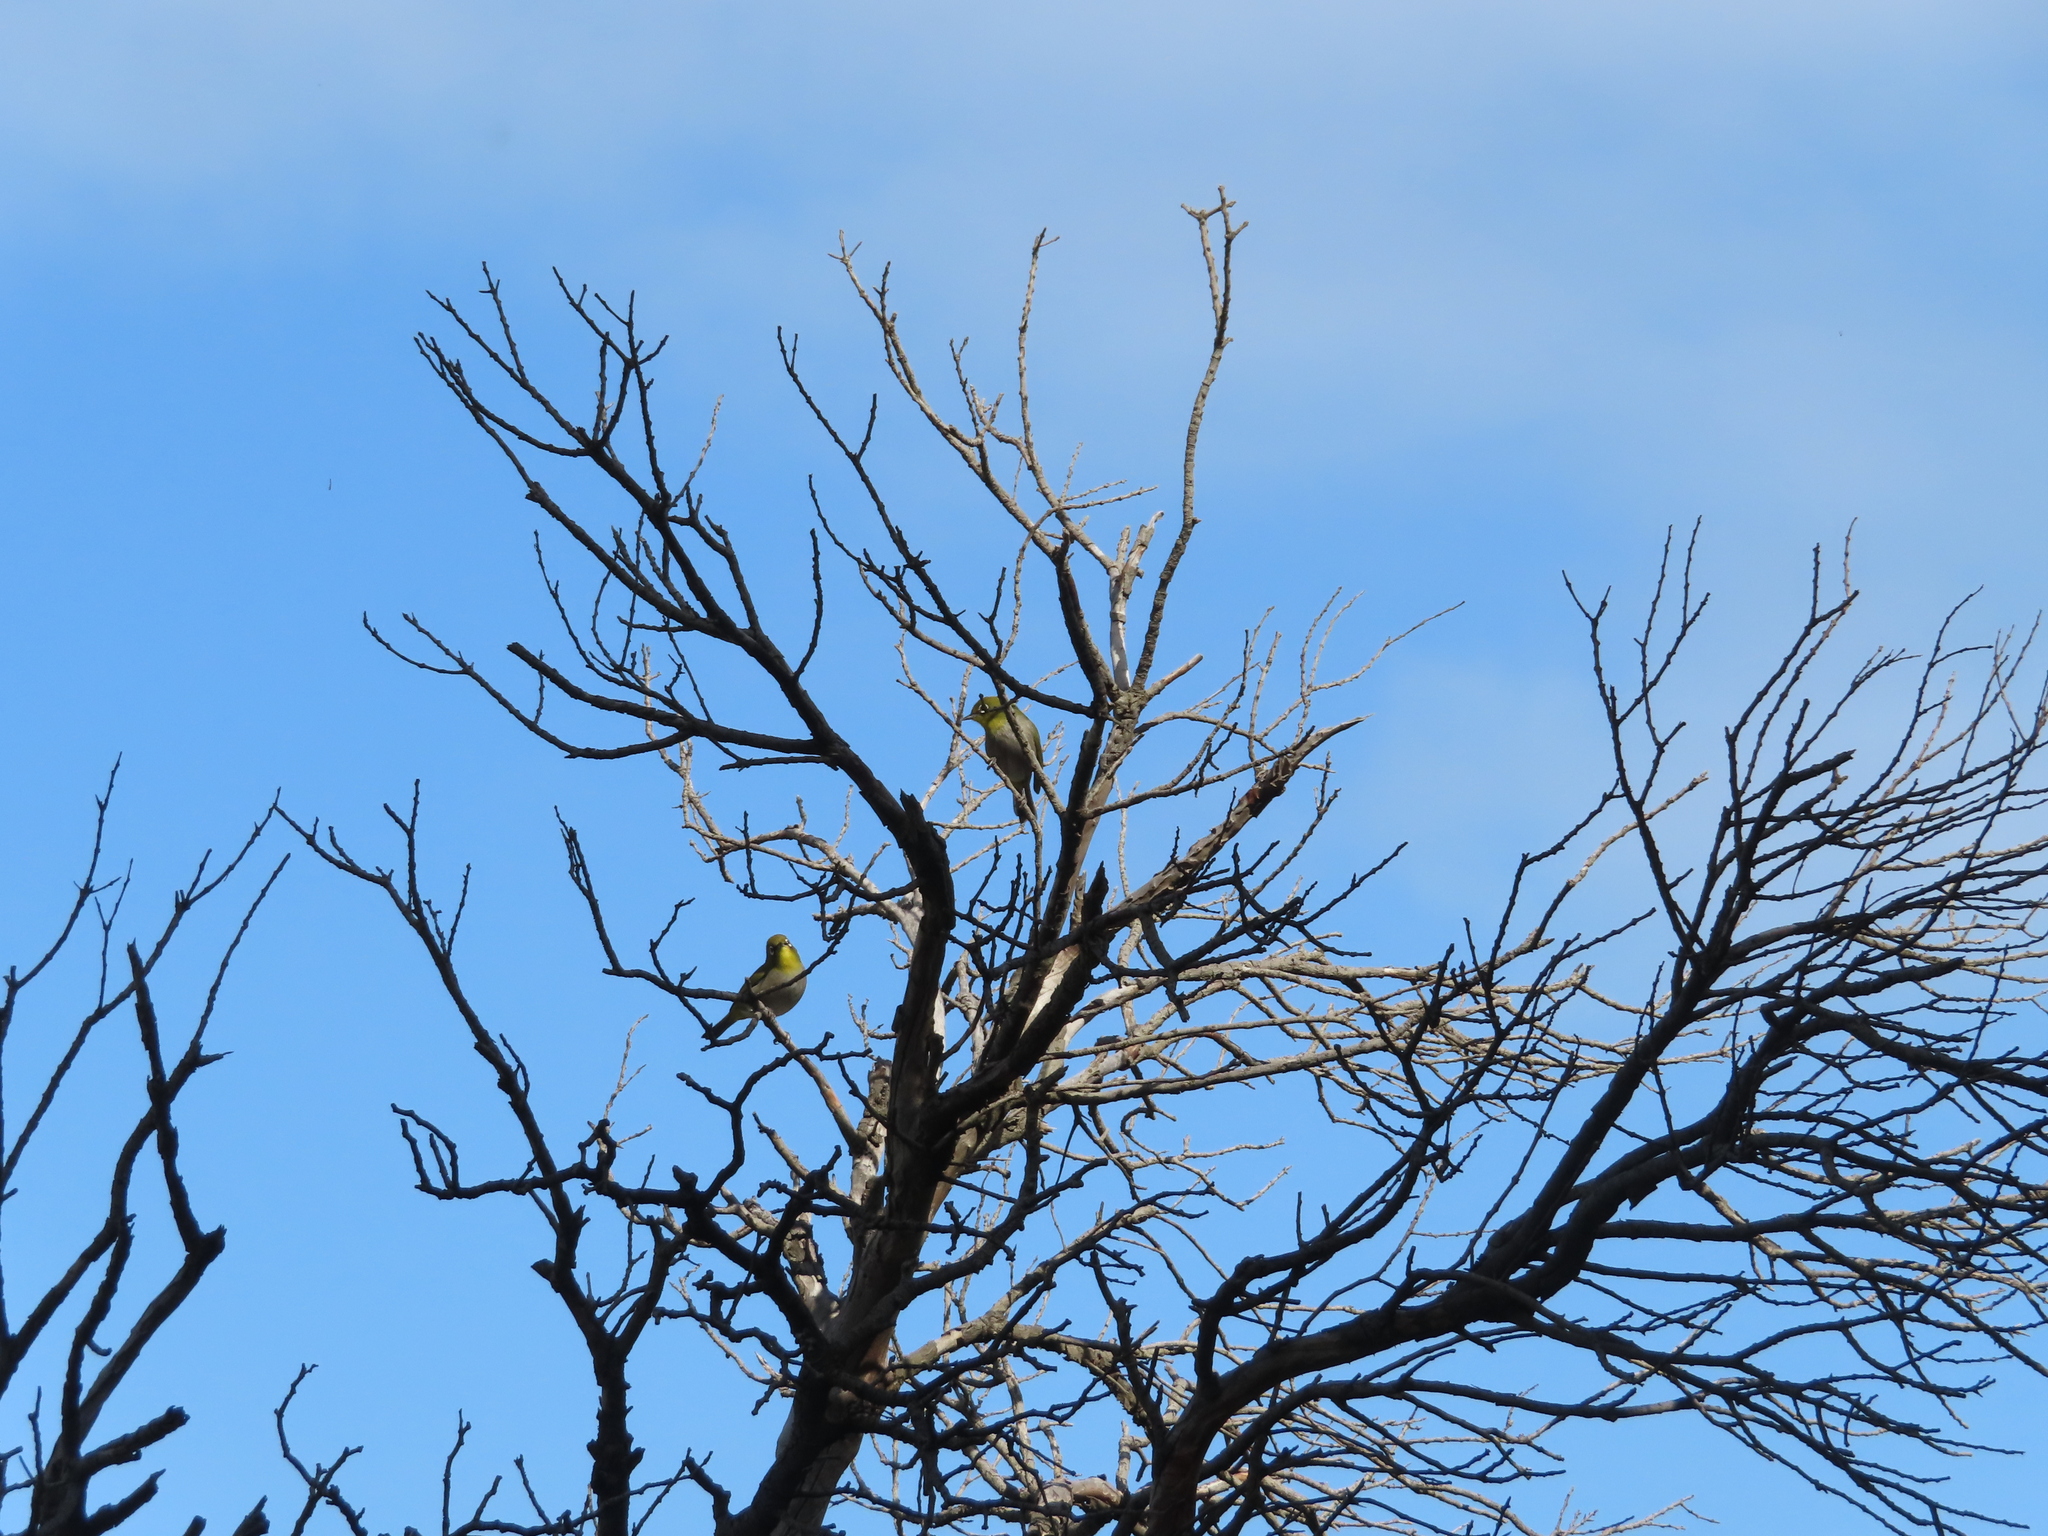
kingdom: Animalia
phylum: Chordata
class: Aves
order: Passeriformes
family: Zosteropidae
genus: Zosterops
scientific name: Zosterops virens
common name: Cape white-eye
